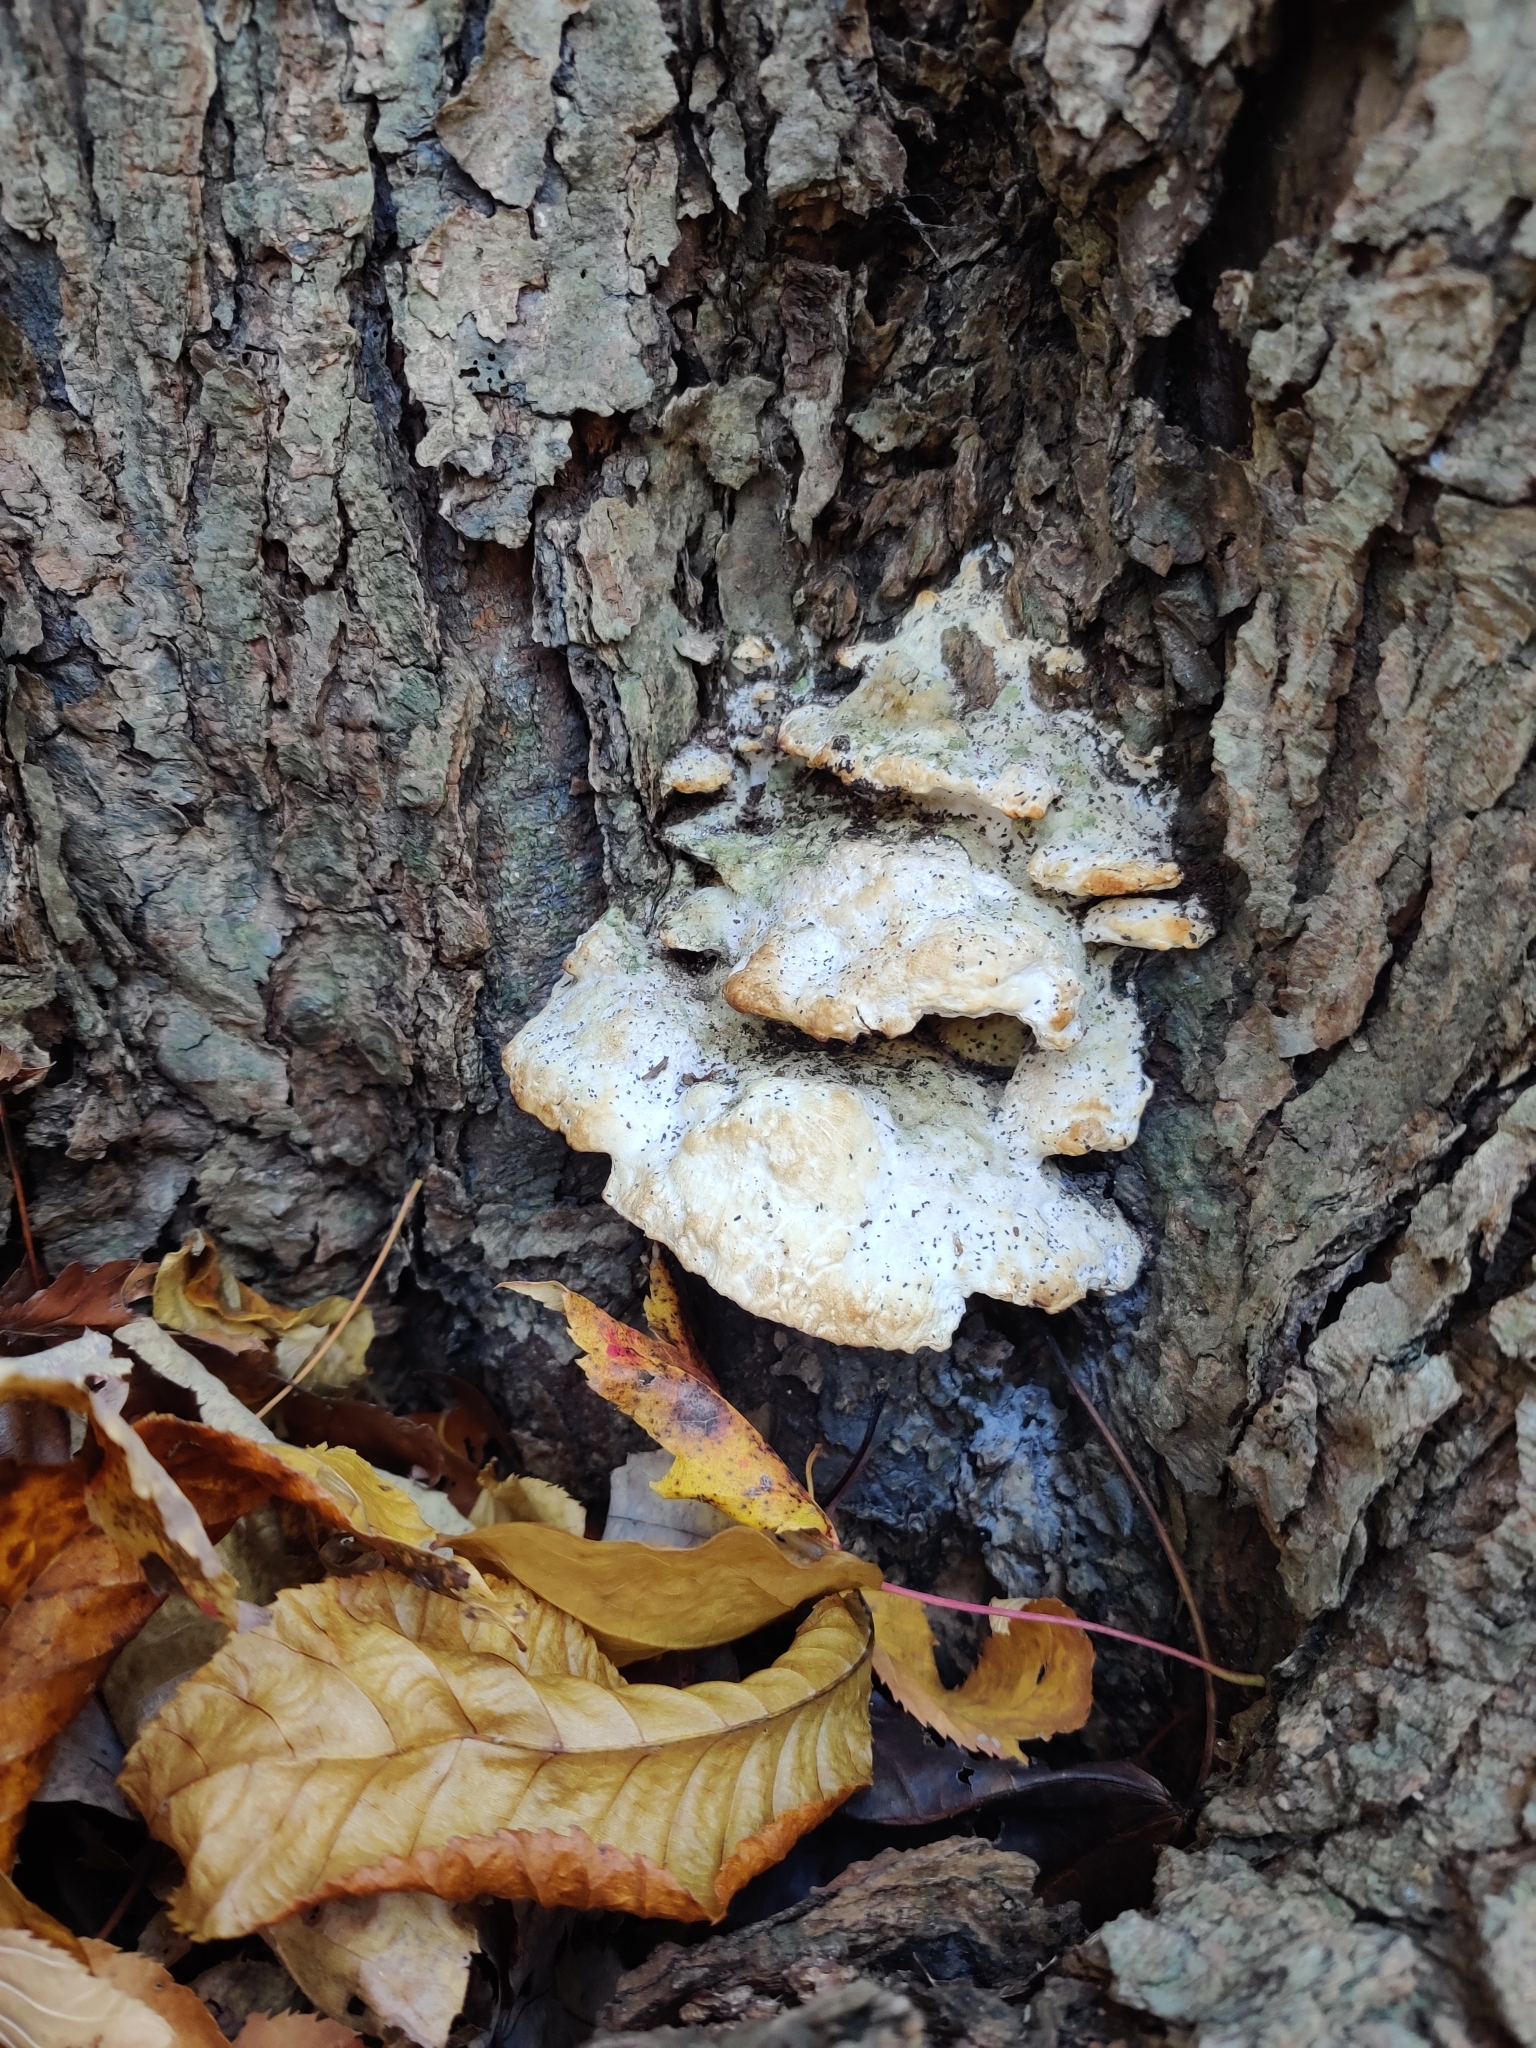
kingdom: Fungi
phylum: Basidiomycota
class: Agaricomycetes
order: Hymenochaetales
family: Oxyporaceae
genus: Oxyporus
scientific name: Oxyporus populinus
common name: Poplar bracket
